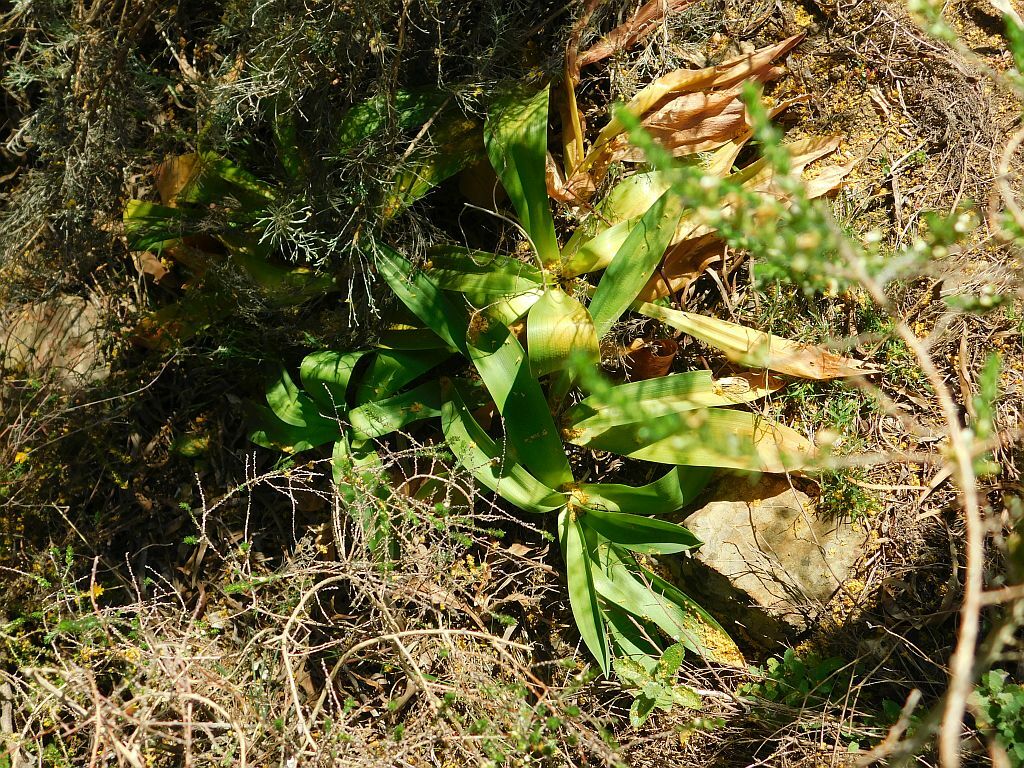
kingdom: Plantae
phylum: Tracheophyta
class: Liliopsida
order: Asparagales
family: Asparagaceae
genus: Drimia
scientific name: Drimia capensis
